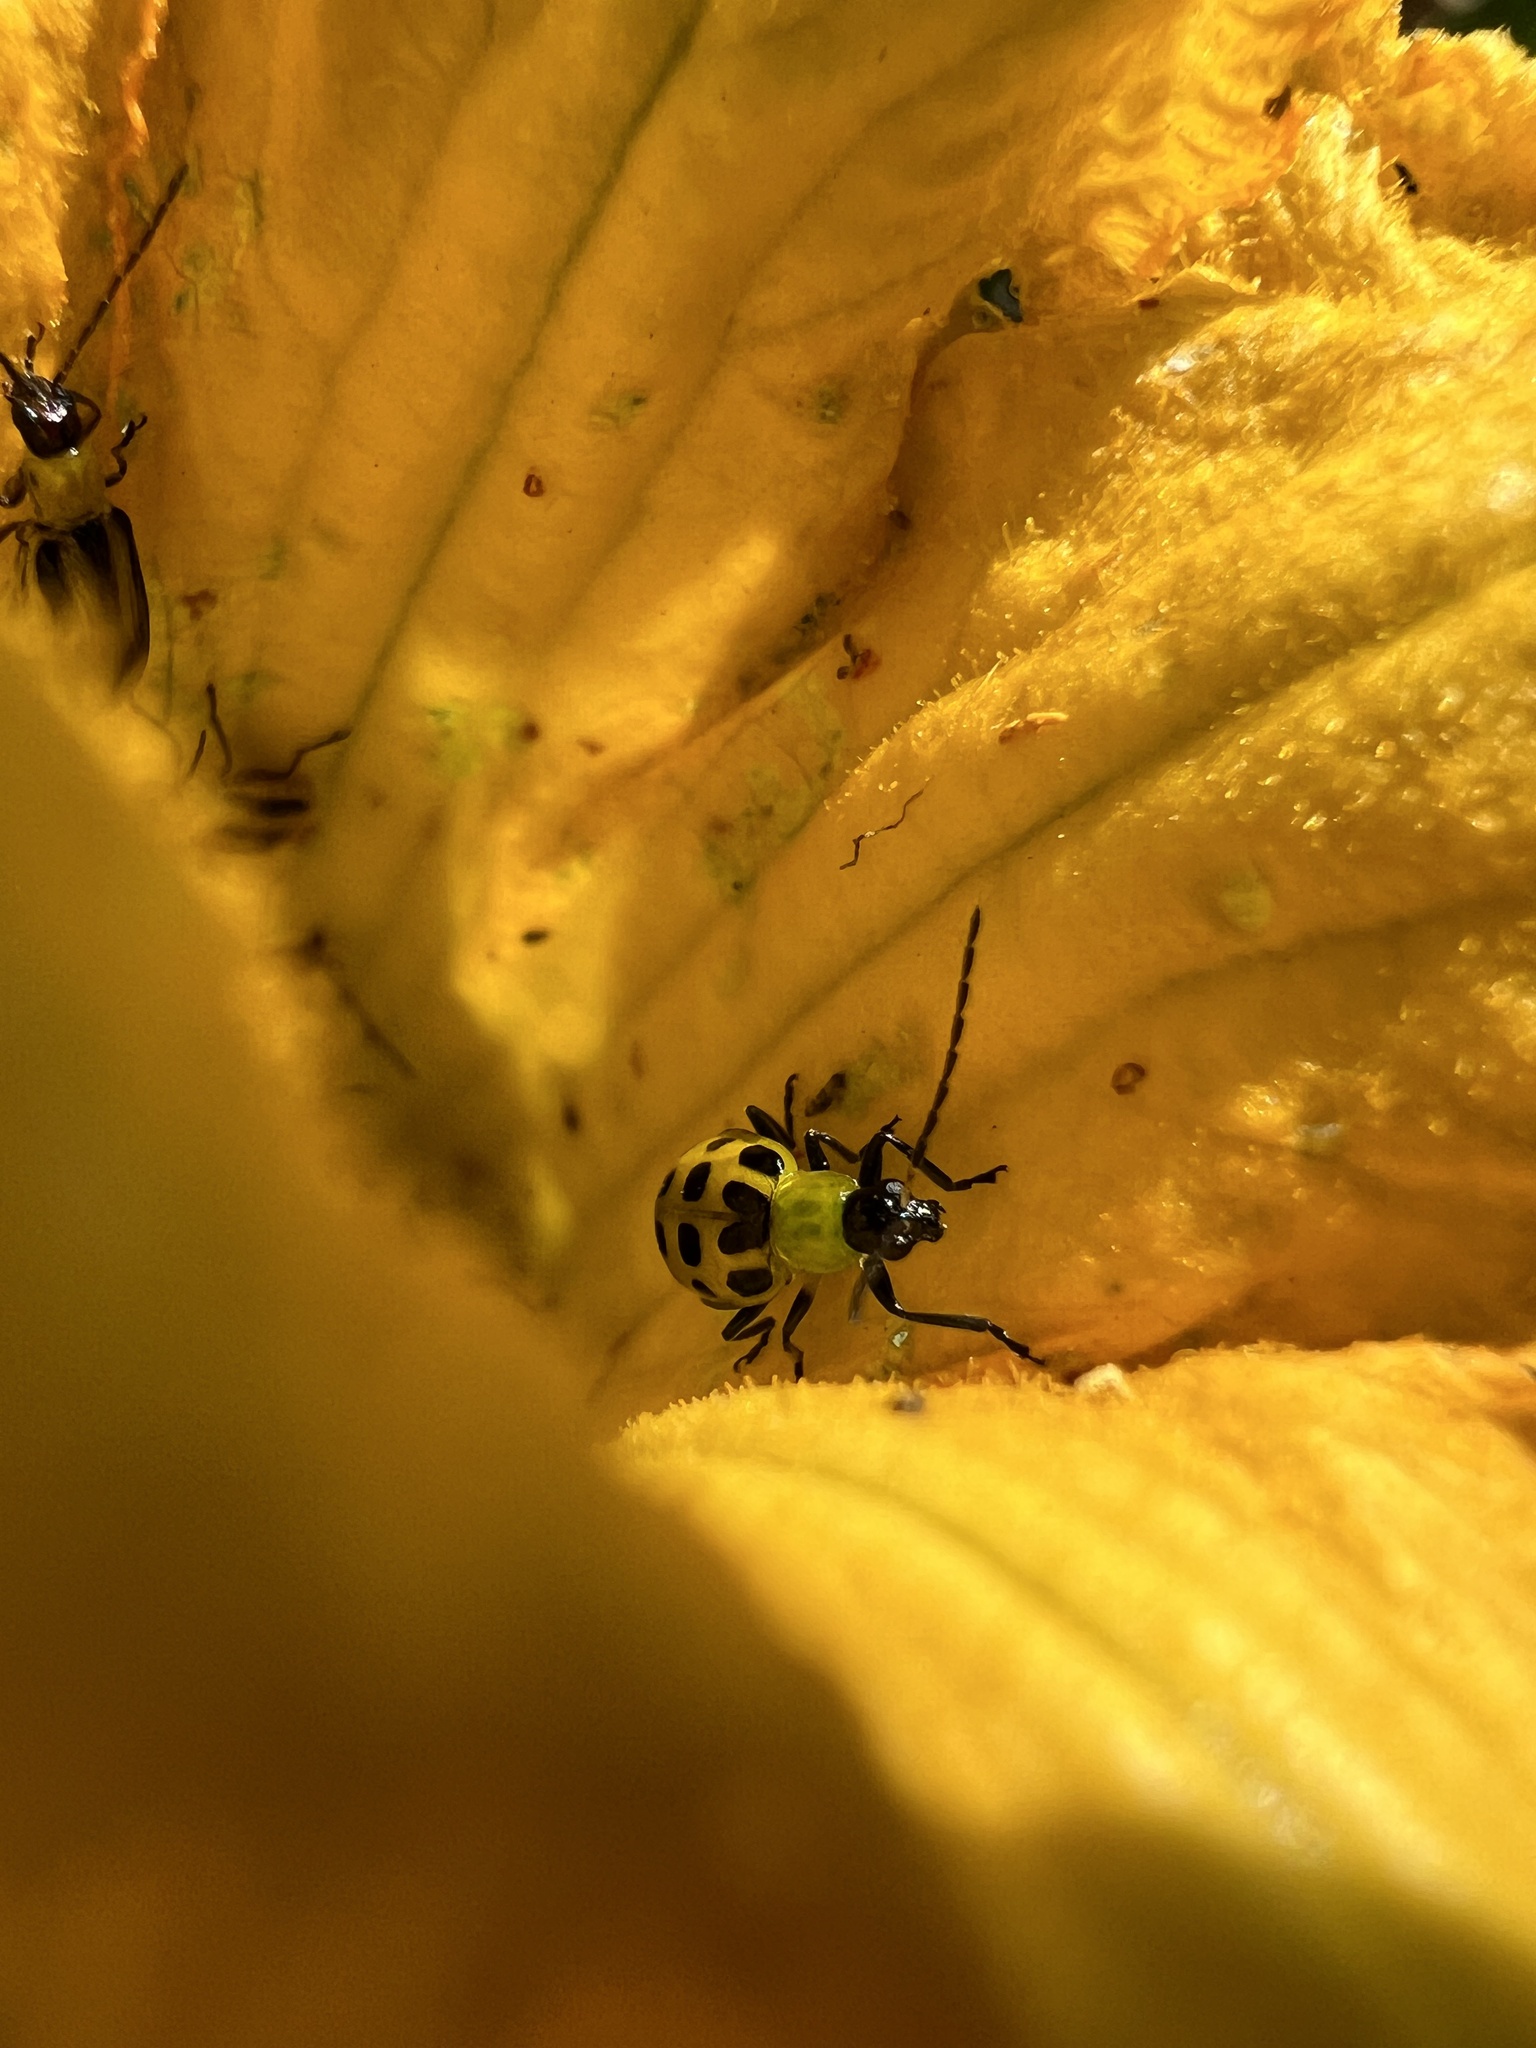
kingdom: Animalia
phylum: Arthropoda
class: Insecta
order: Coleoptera
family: Chrysomelidae
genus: Diabrotica
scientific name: Diabrotica undecimpunctata
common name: Spotted cucumber beetle
